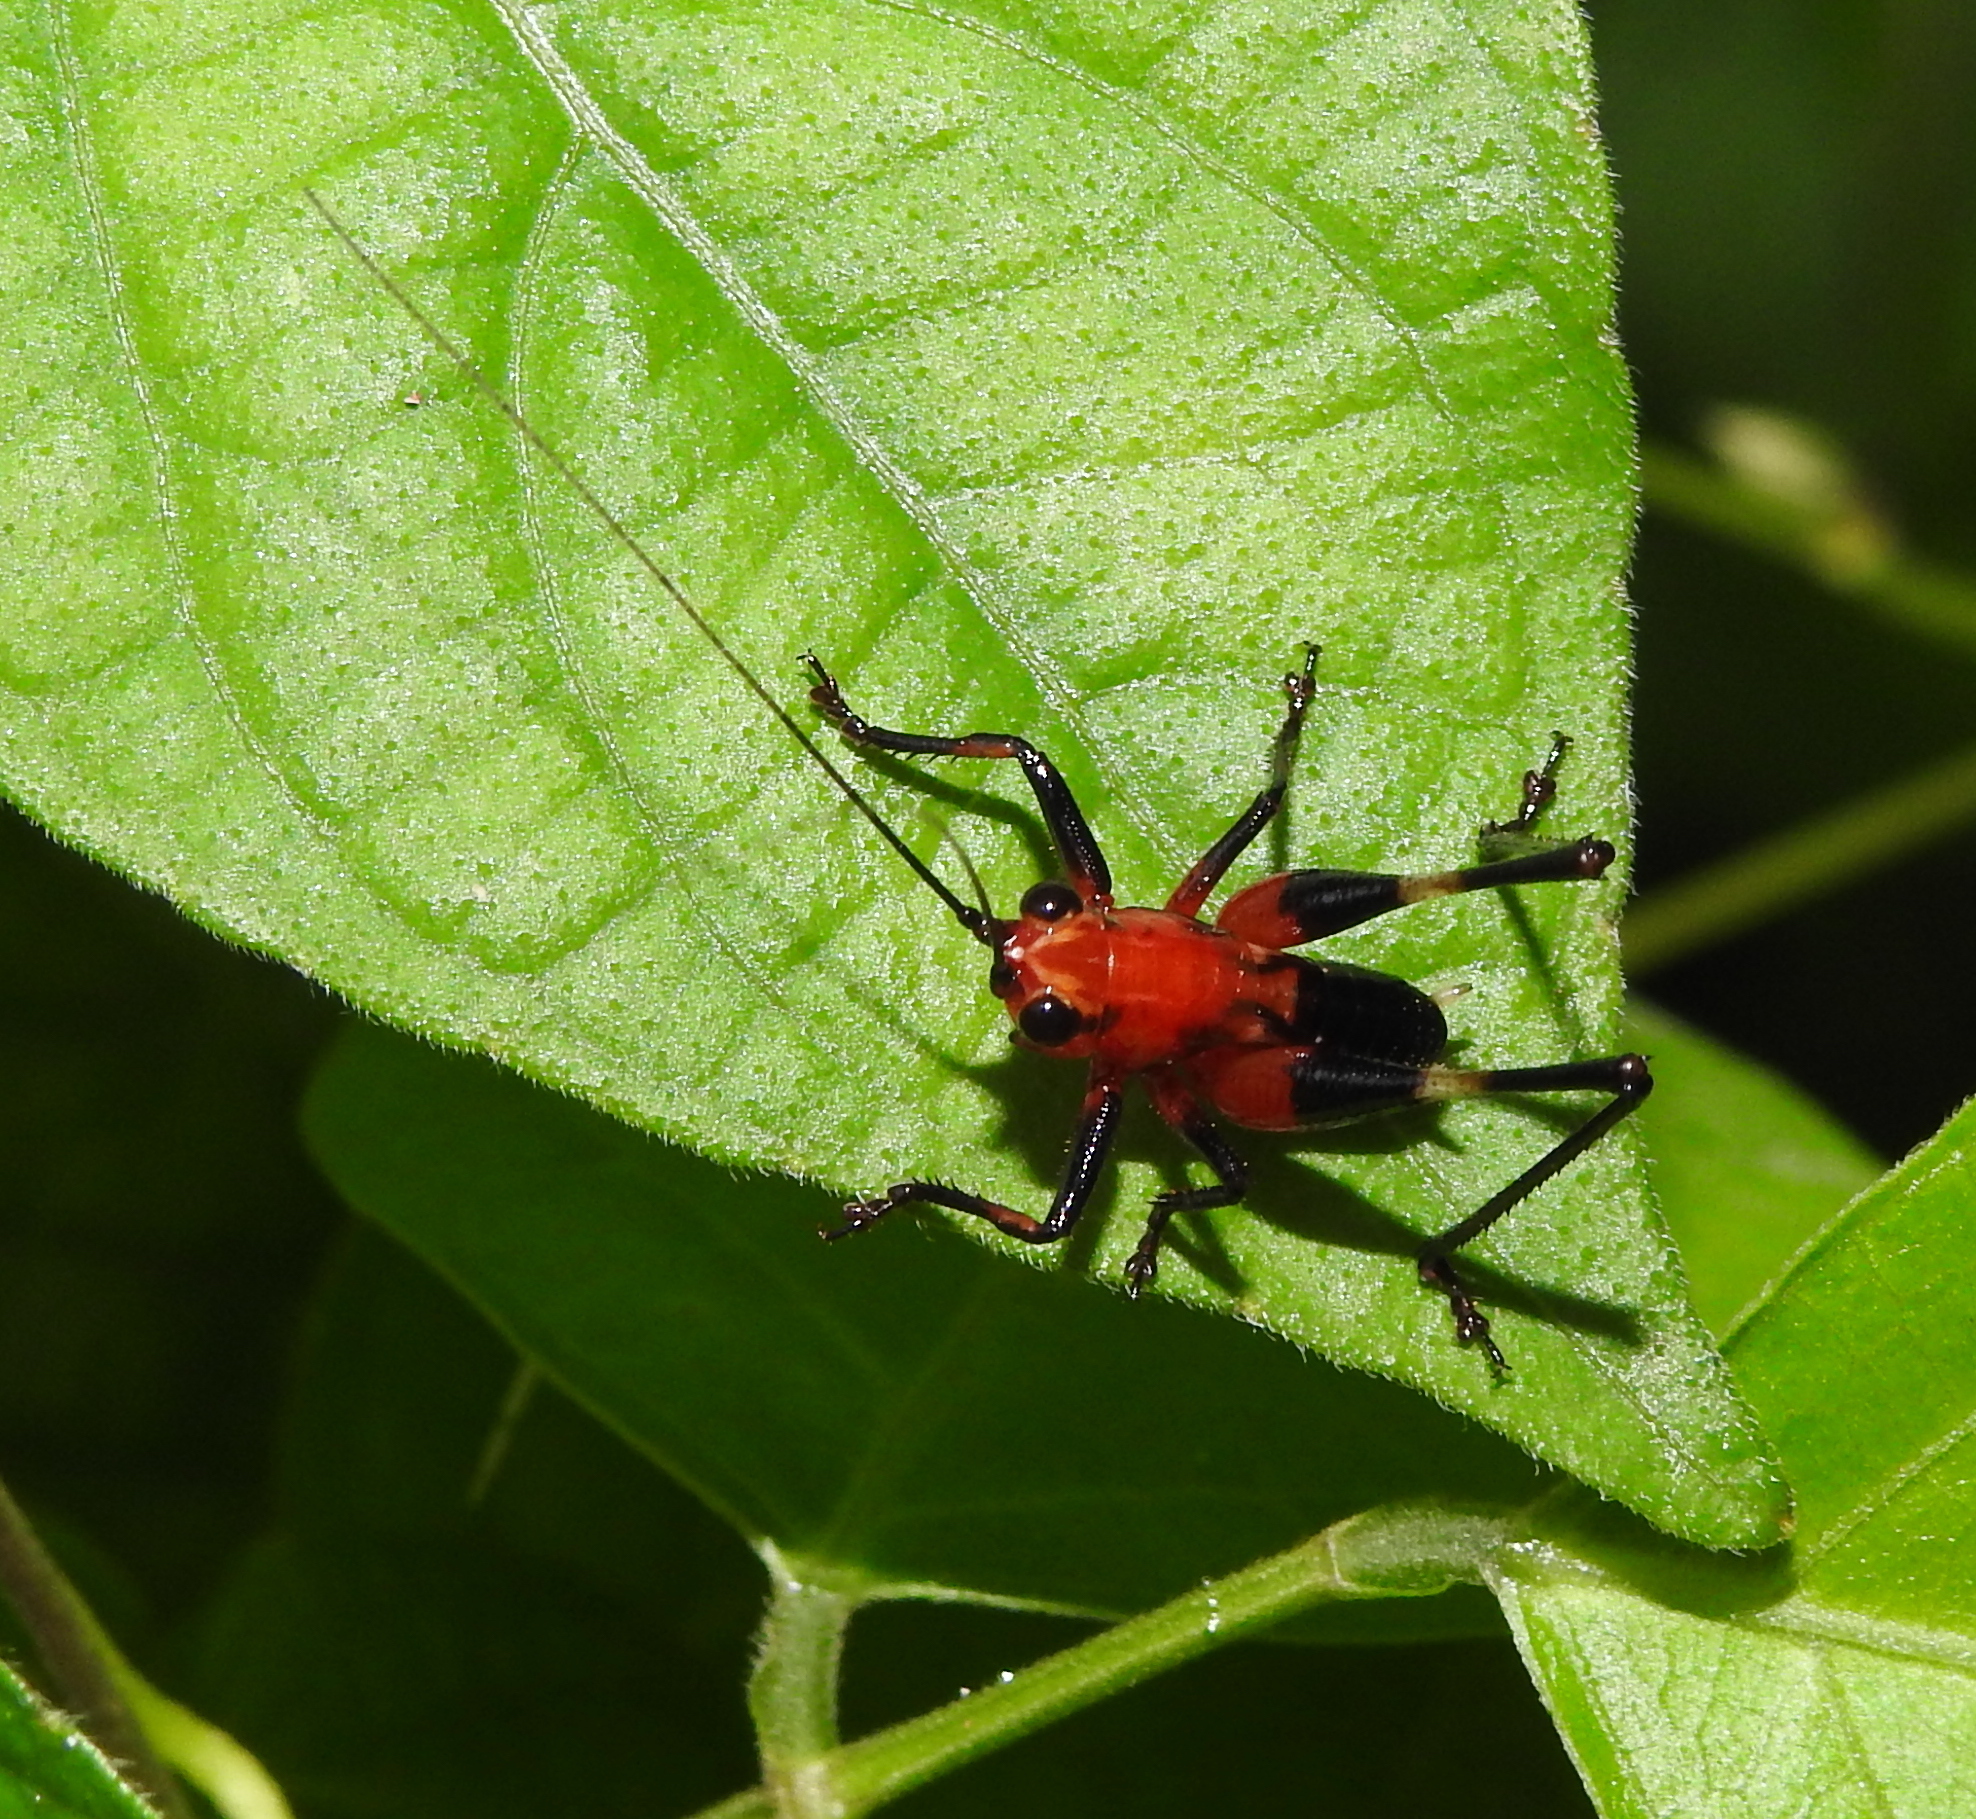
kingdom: Animalia
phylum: Arthropoda
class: Insecta
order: Orthoptera
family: Tettigoniidae
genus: Conocephalus
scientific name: Conocephalus melaenus
